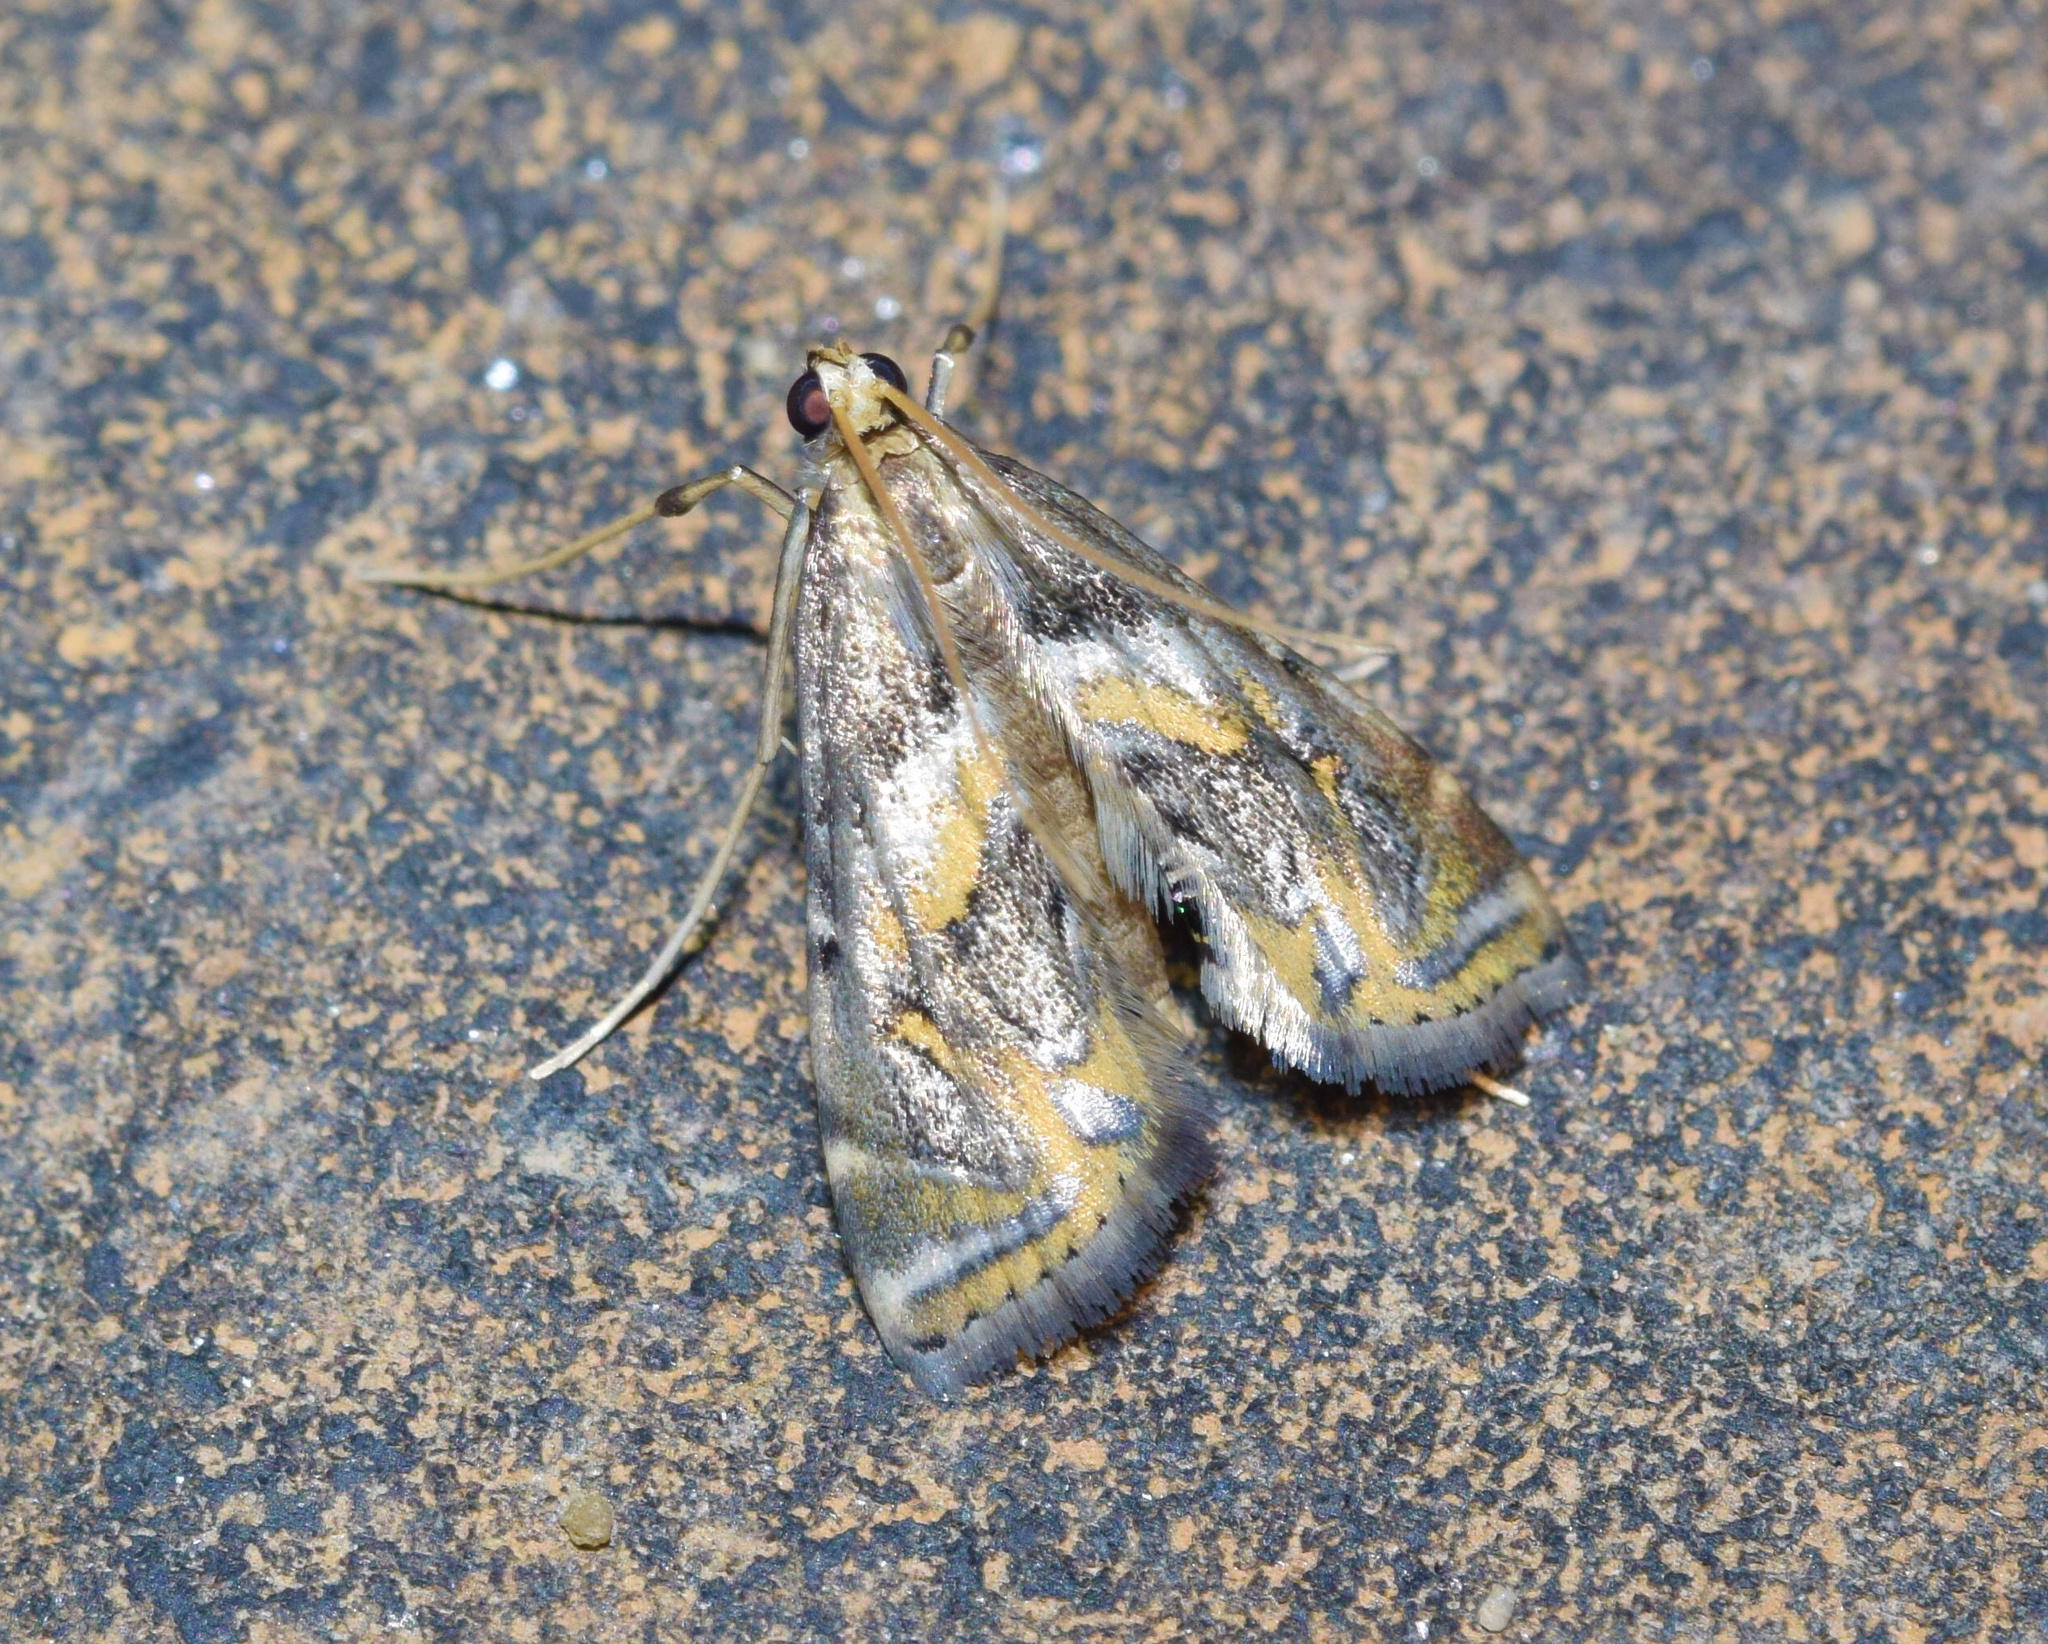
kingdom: Animalia
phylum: Arthropoda
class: Insecta
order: Lepidoptera
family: Crambidae
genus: Argyractis
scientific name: Argyractis capensis
